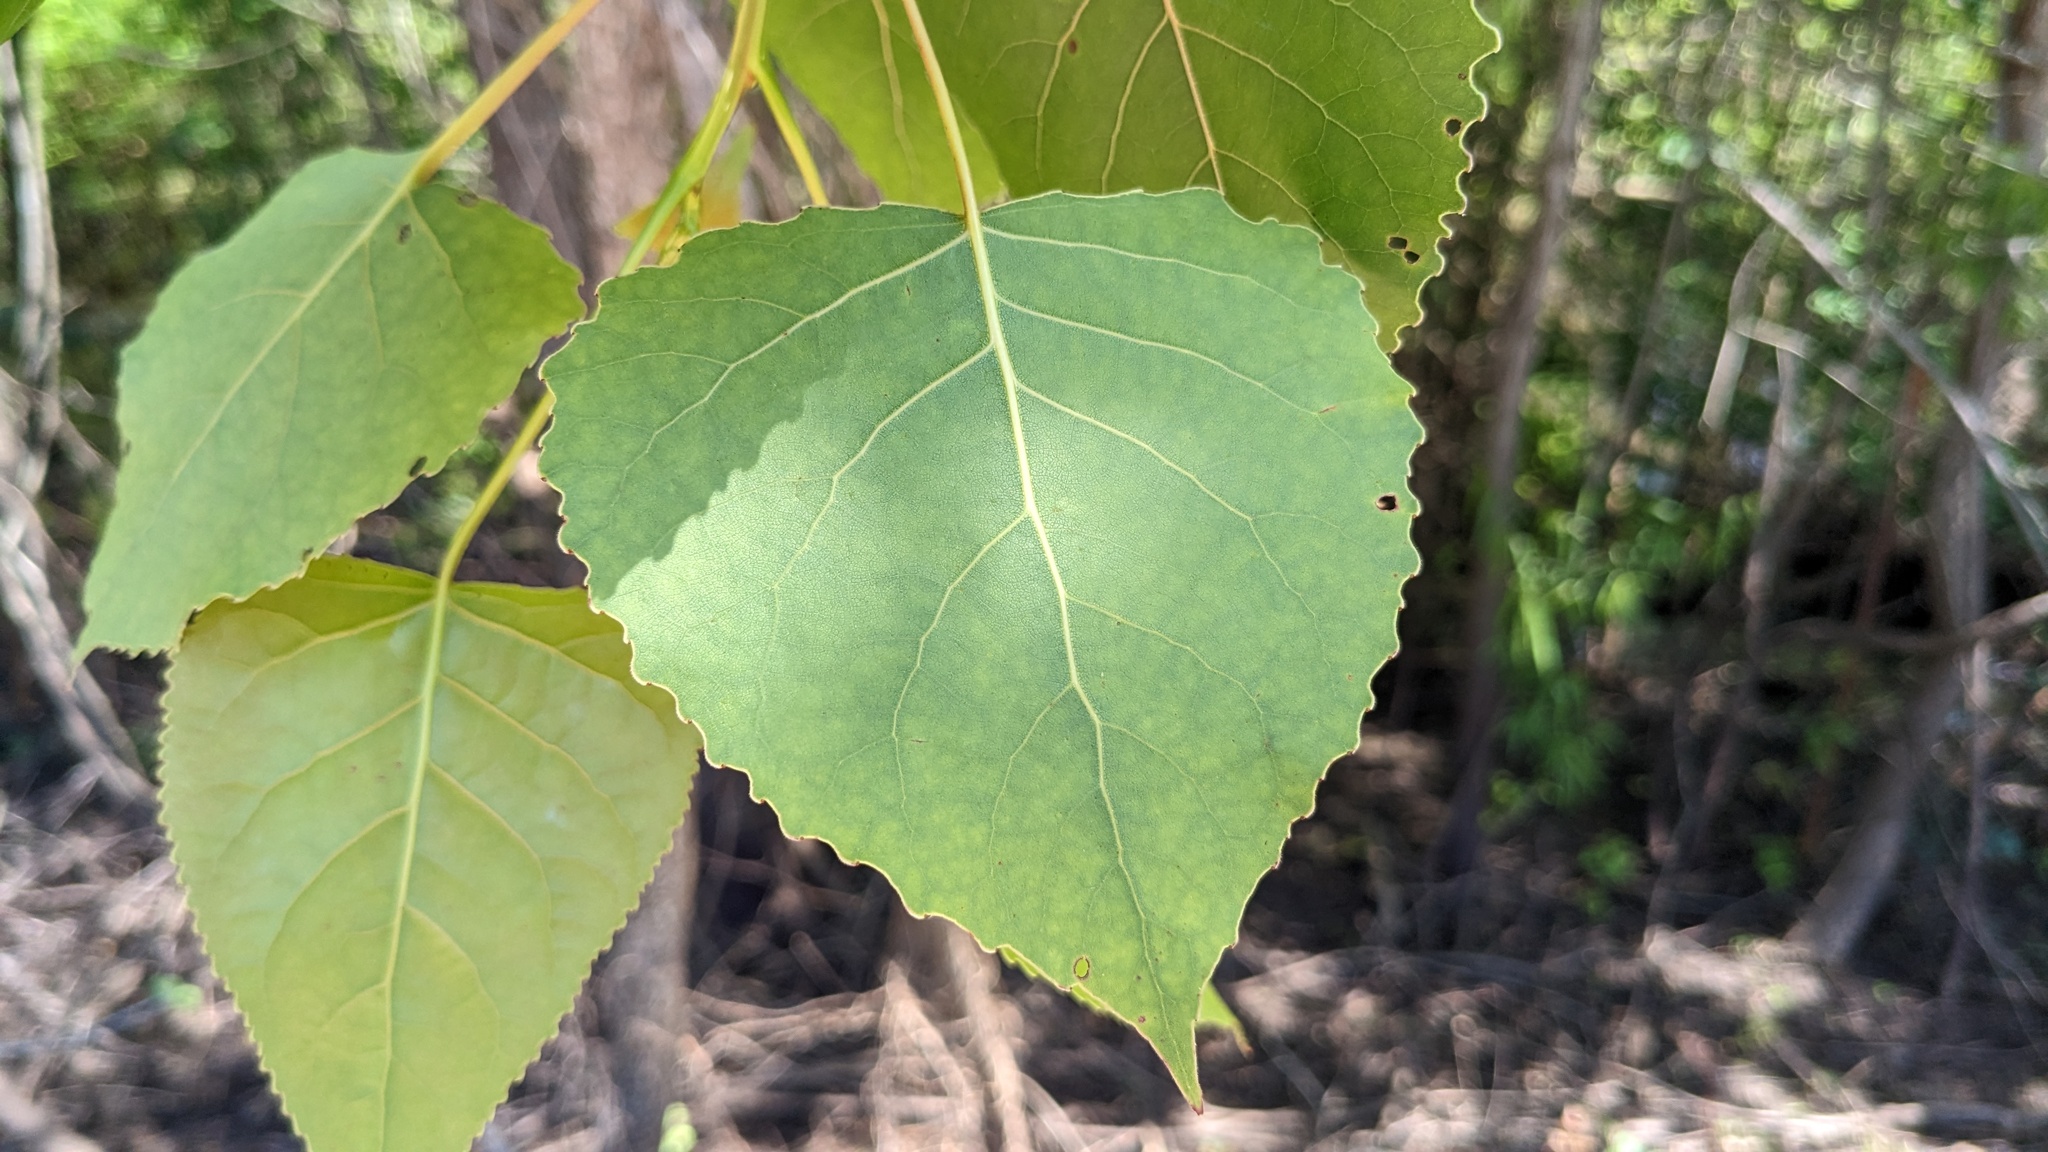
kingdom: Plantae
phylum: Tracheophyta
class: Magnoliopsida
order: Malpighiales
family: Salicaceae
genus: Populus
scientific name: Populus deltoides
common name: Eastern cottonwood
